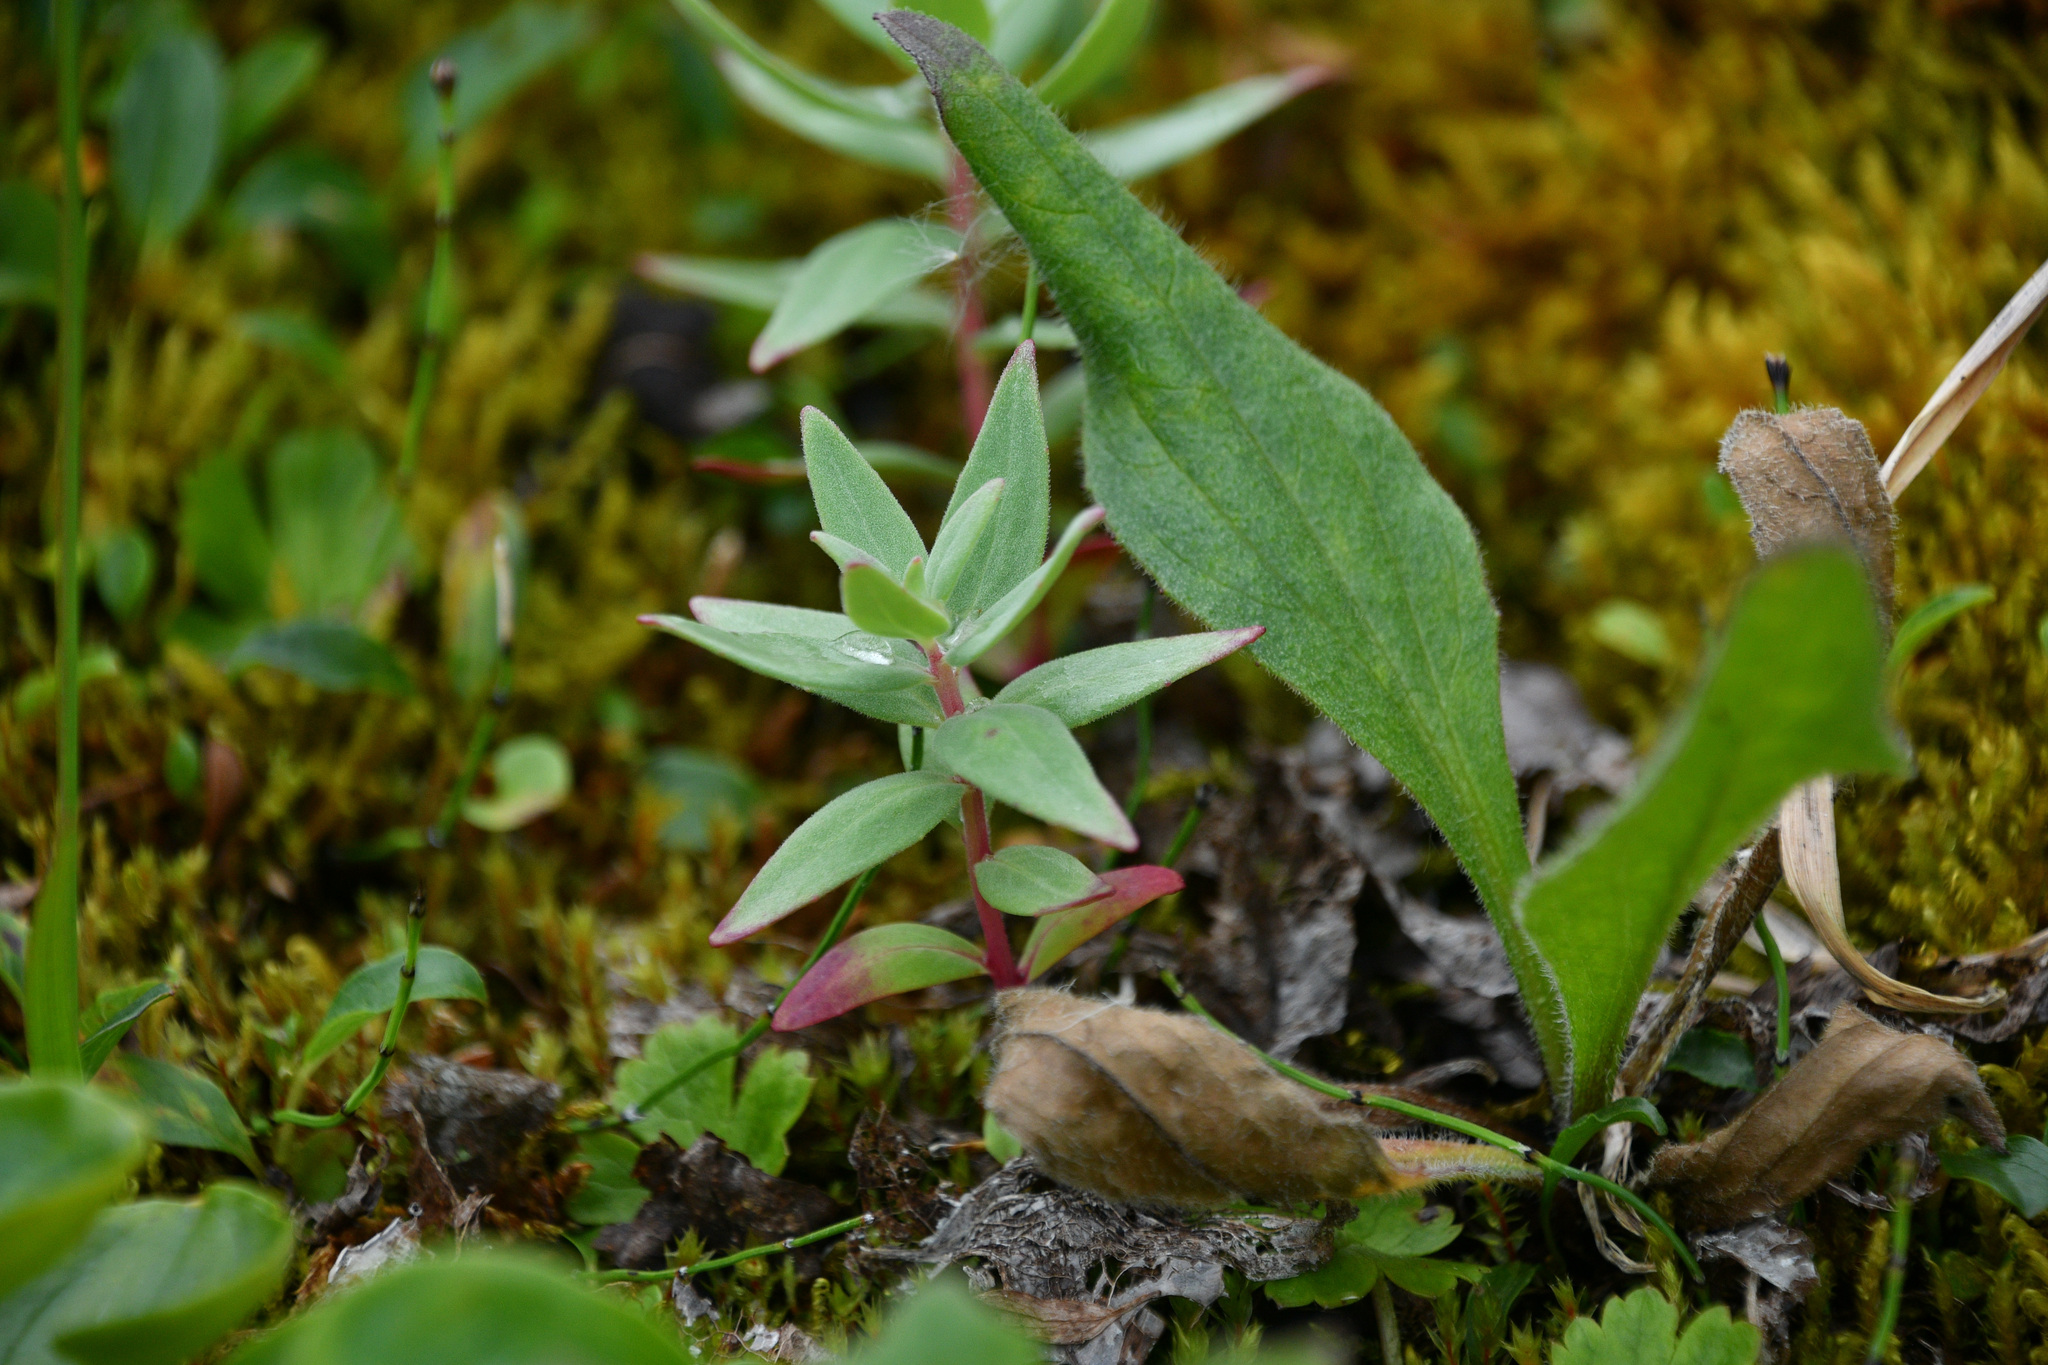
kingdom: Plantae
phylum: Tracheophyta
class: Magnoliopsida
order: Myrtales
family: Onagraceae
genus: Chamaenerion
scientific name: Chamaenerion latifolium
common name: Dwarf fireweed
